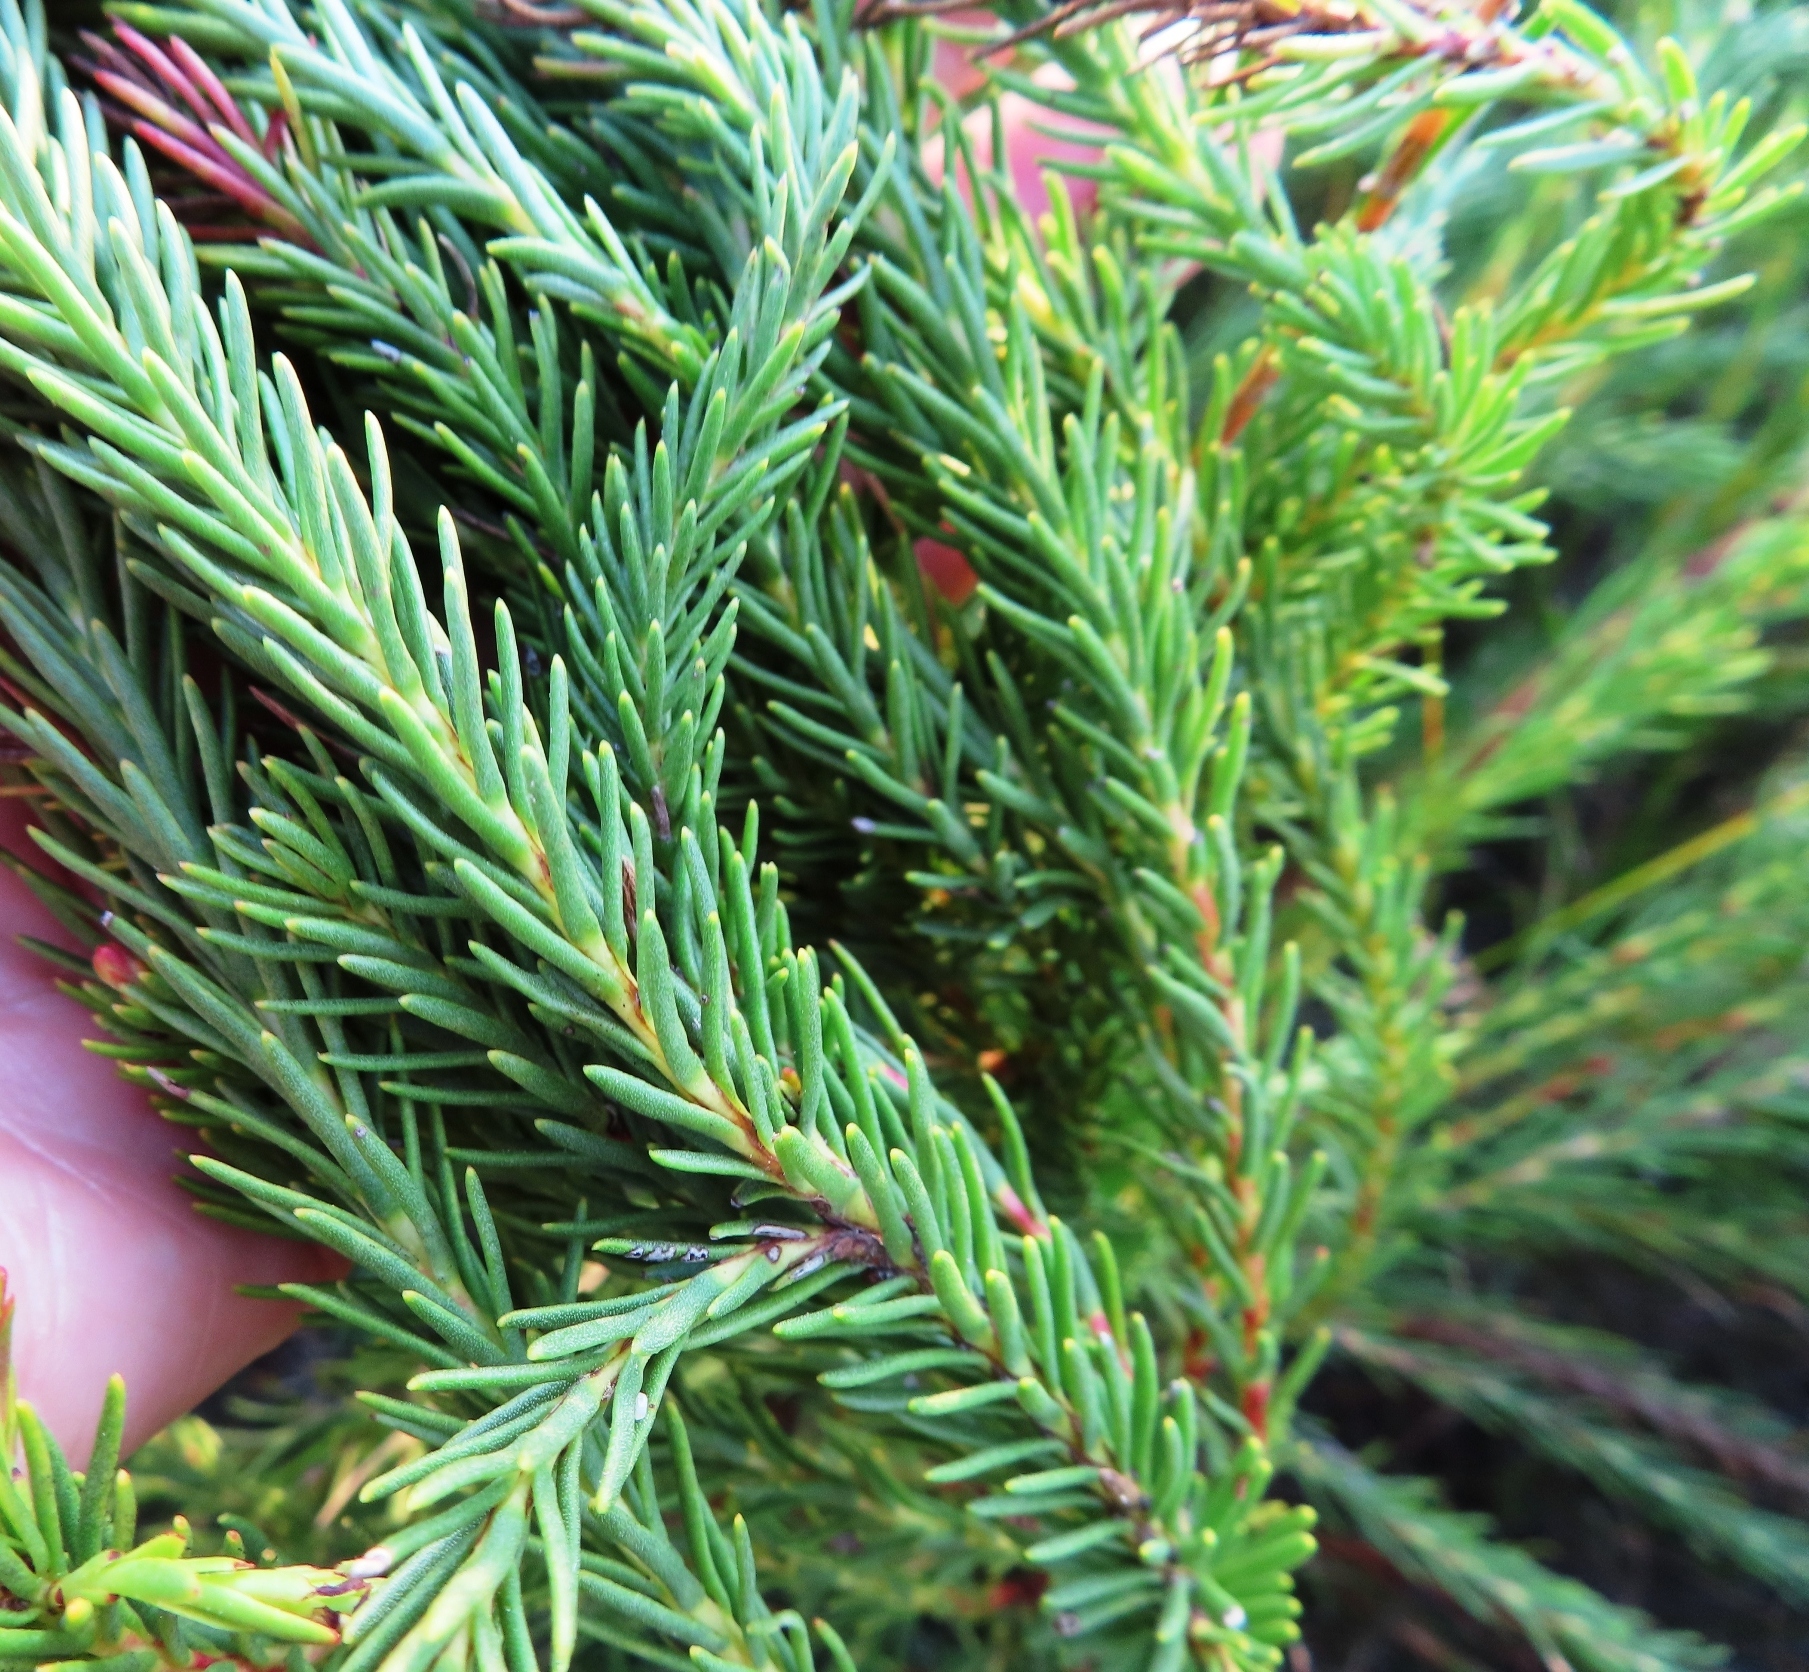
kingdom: Plantae
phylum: Tracheophyta
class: Magnoliopsida
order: Proteales
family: Proteaceae
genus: Protea
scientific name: Protea subulifolia
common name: Awl-leaf sugarbush
